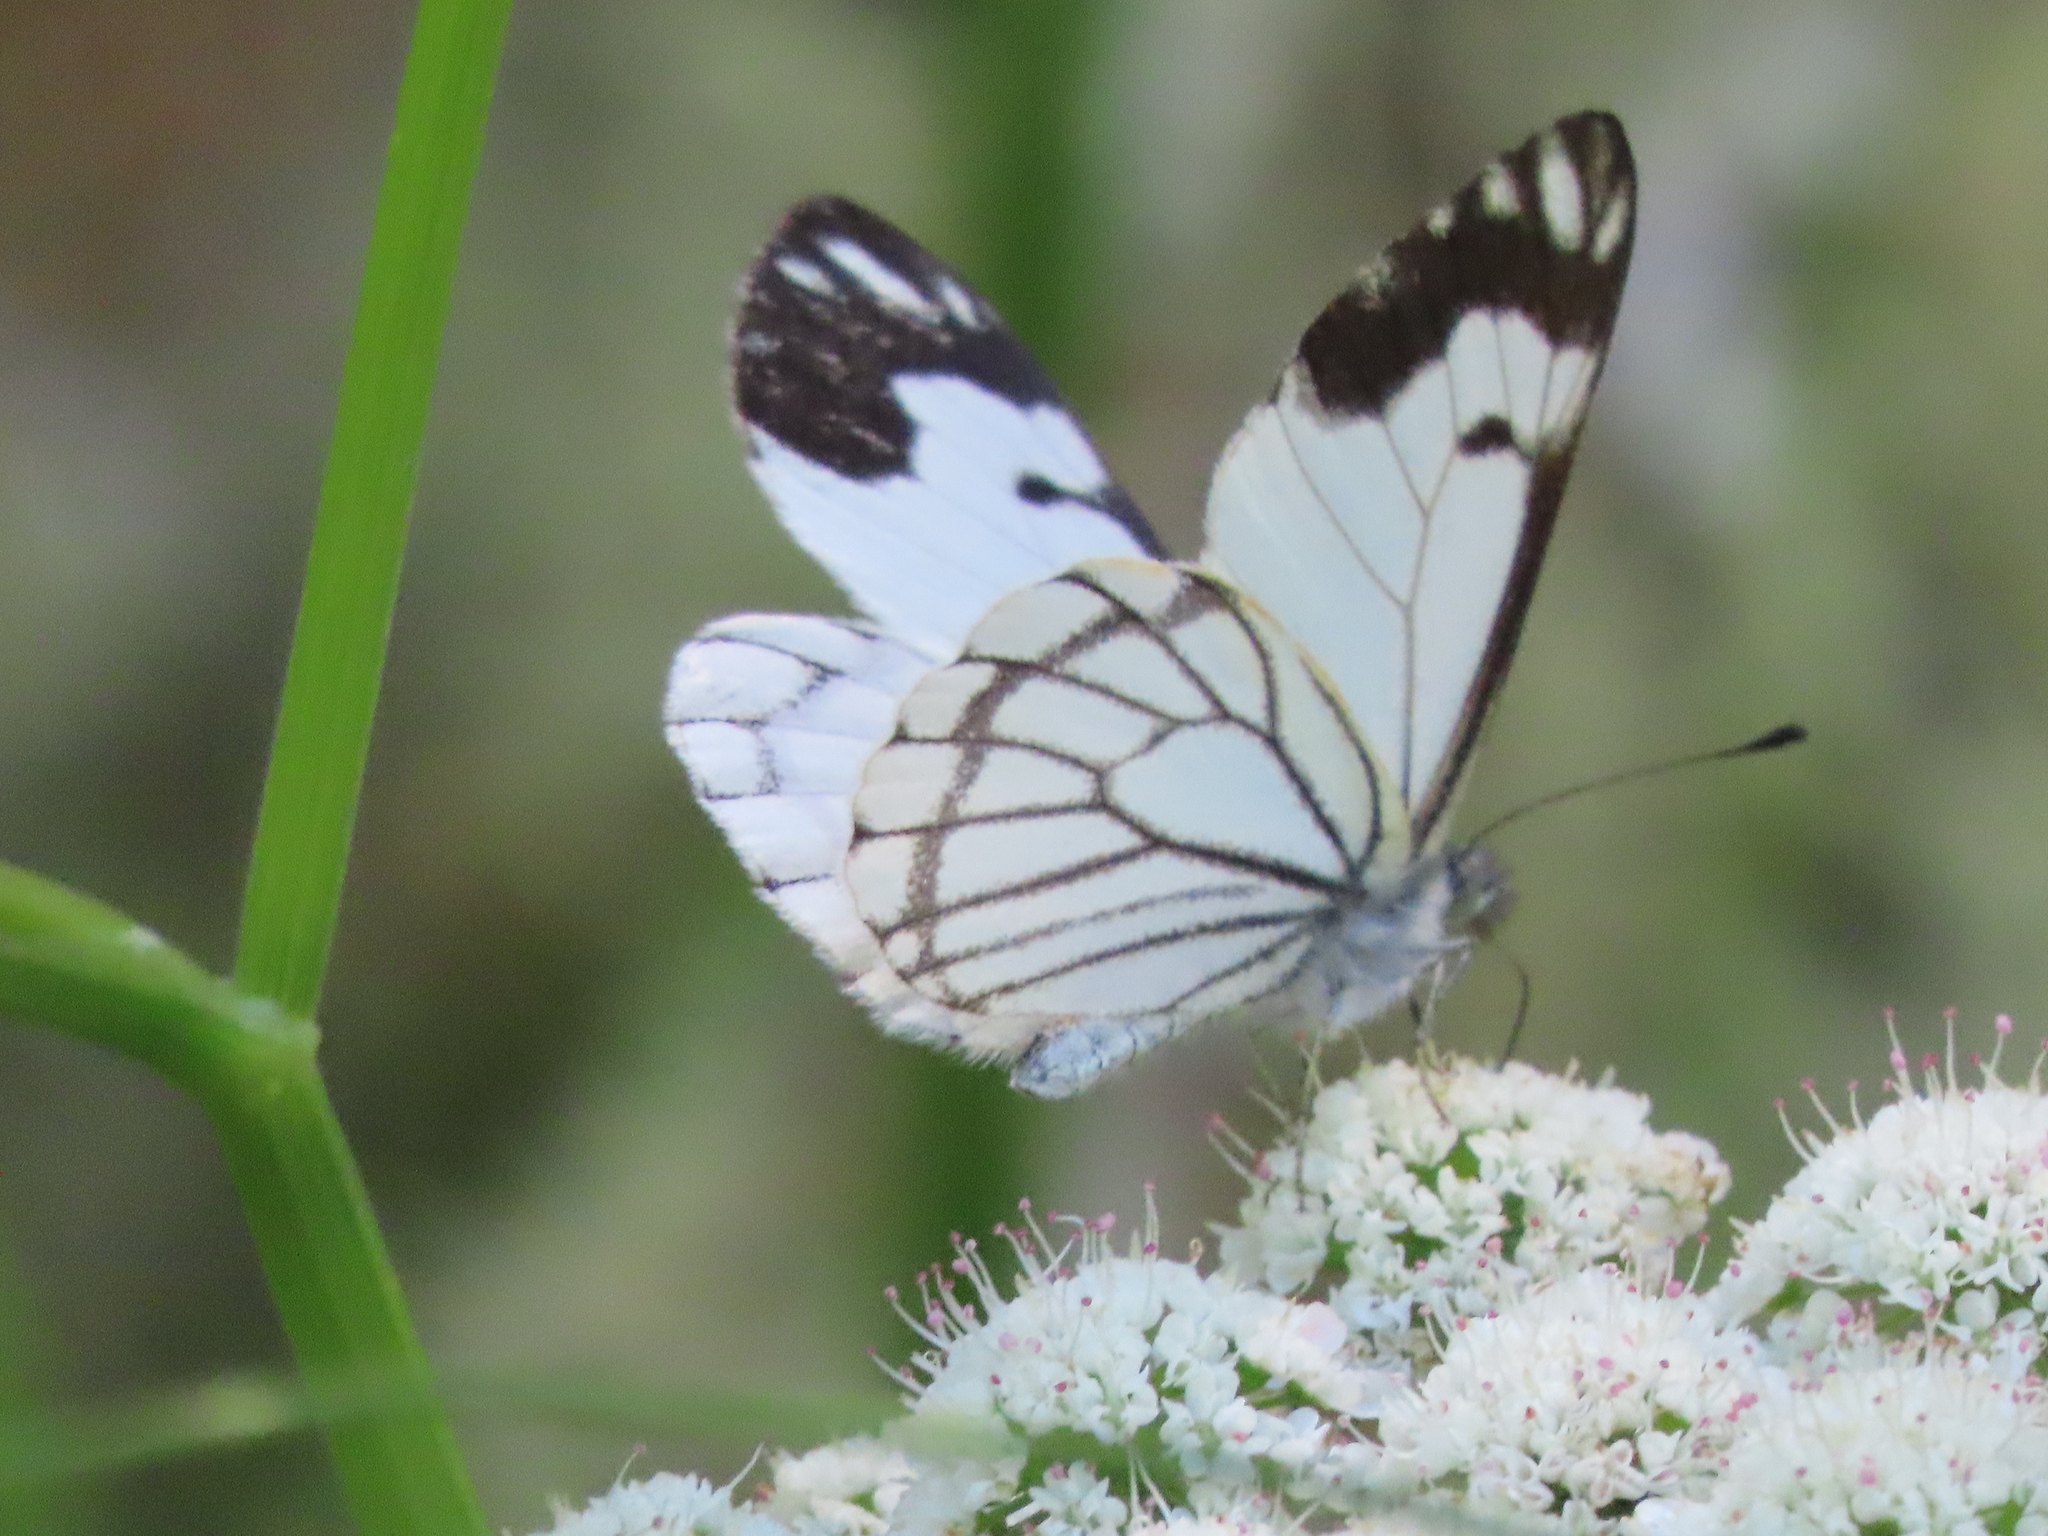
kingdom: Animalia
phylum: Arthropoda
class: Insecta
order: Lepidoptera
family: Pieridae
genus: Neophasia
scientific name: Neophasia menapia
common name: Pine white
